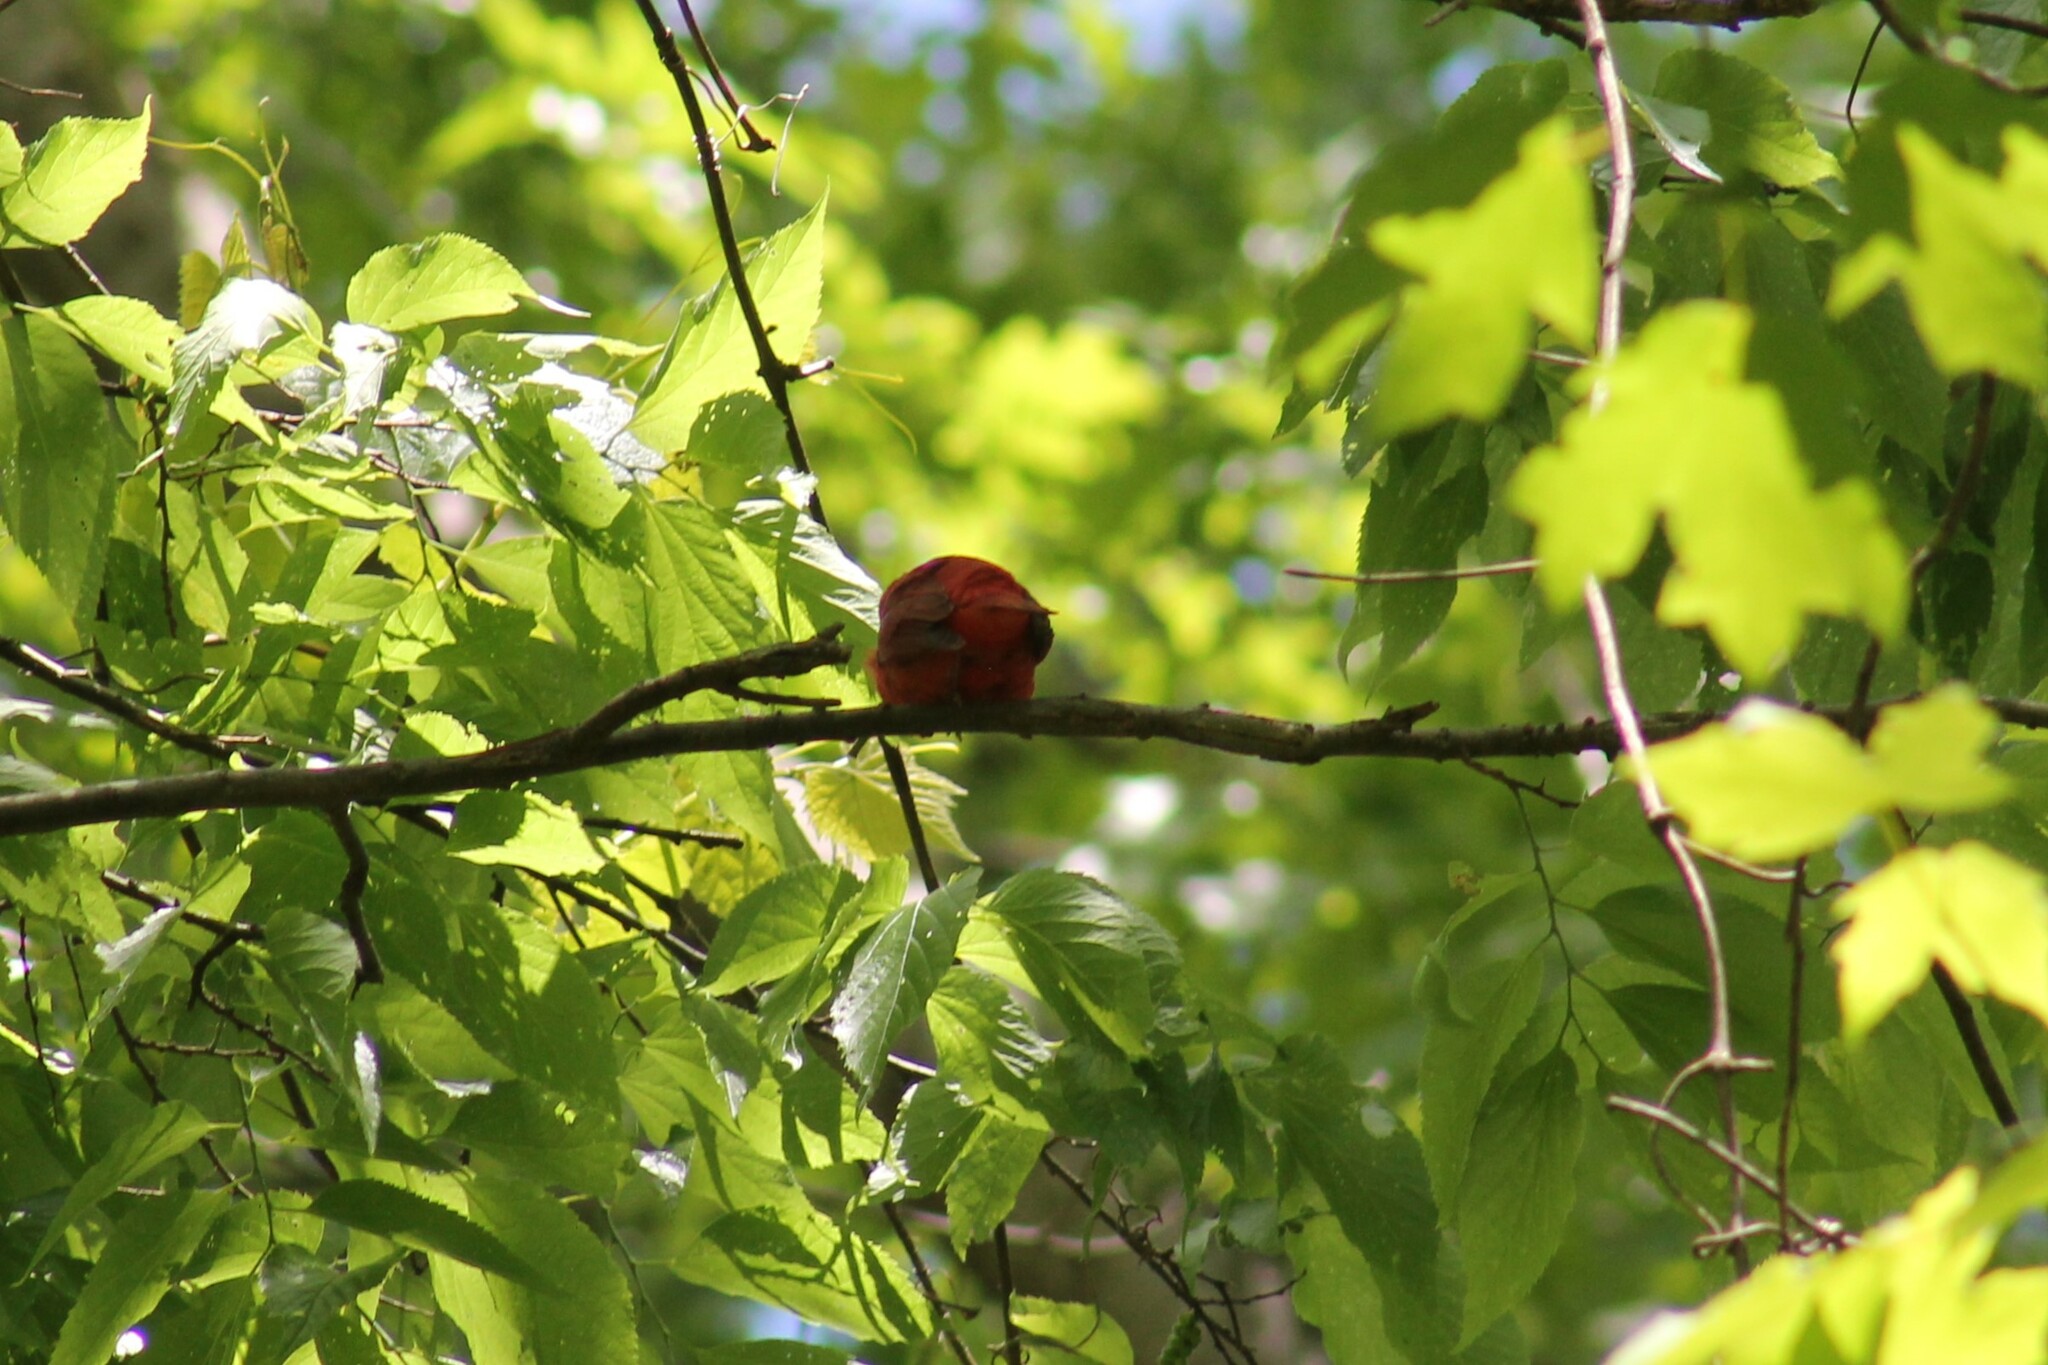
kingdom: Animalia
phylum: Chordata
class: Aves
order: Passeriformes
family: Cardinalidae
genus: Piranga
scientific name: Piranga rubra
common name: Summer tanager
